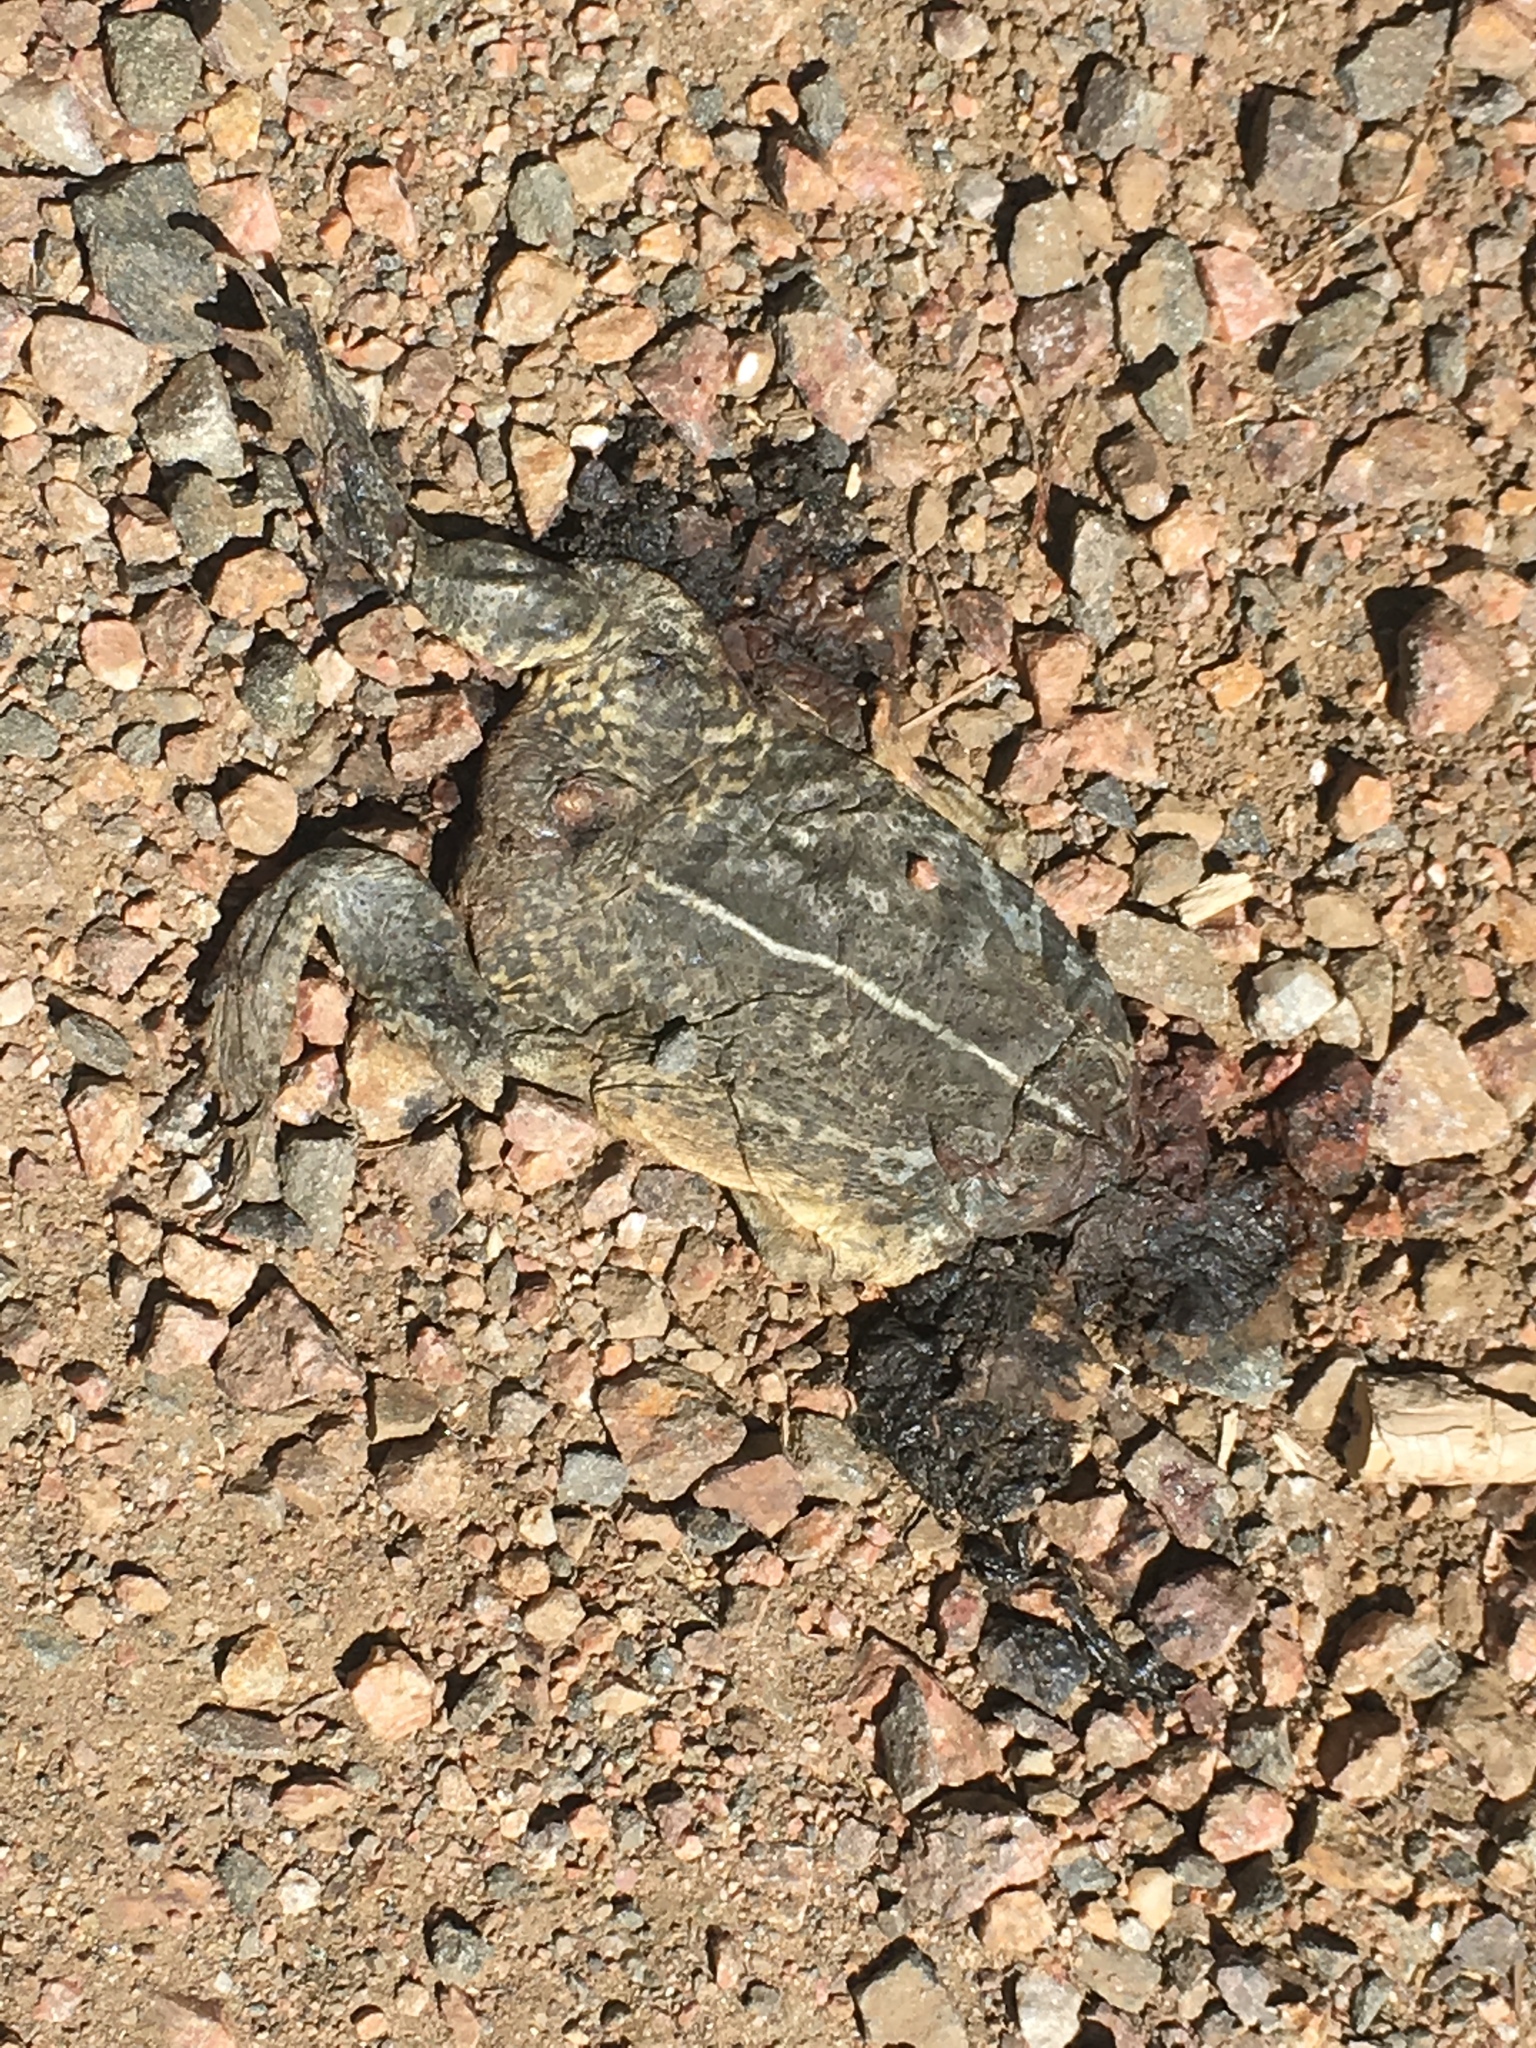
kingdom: Animalia
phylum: Chordata
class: Amphibia
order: Anura
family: Bufonidae
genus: Anaxyrus
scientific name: Anaxyrus woodhousii
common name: Woodhouse's toad
